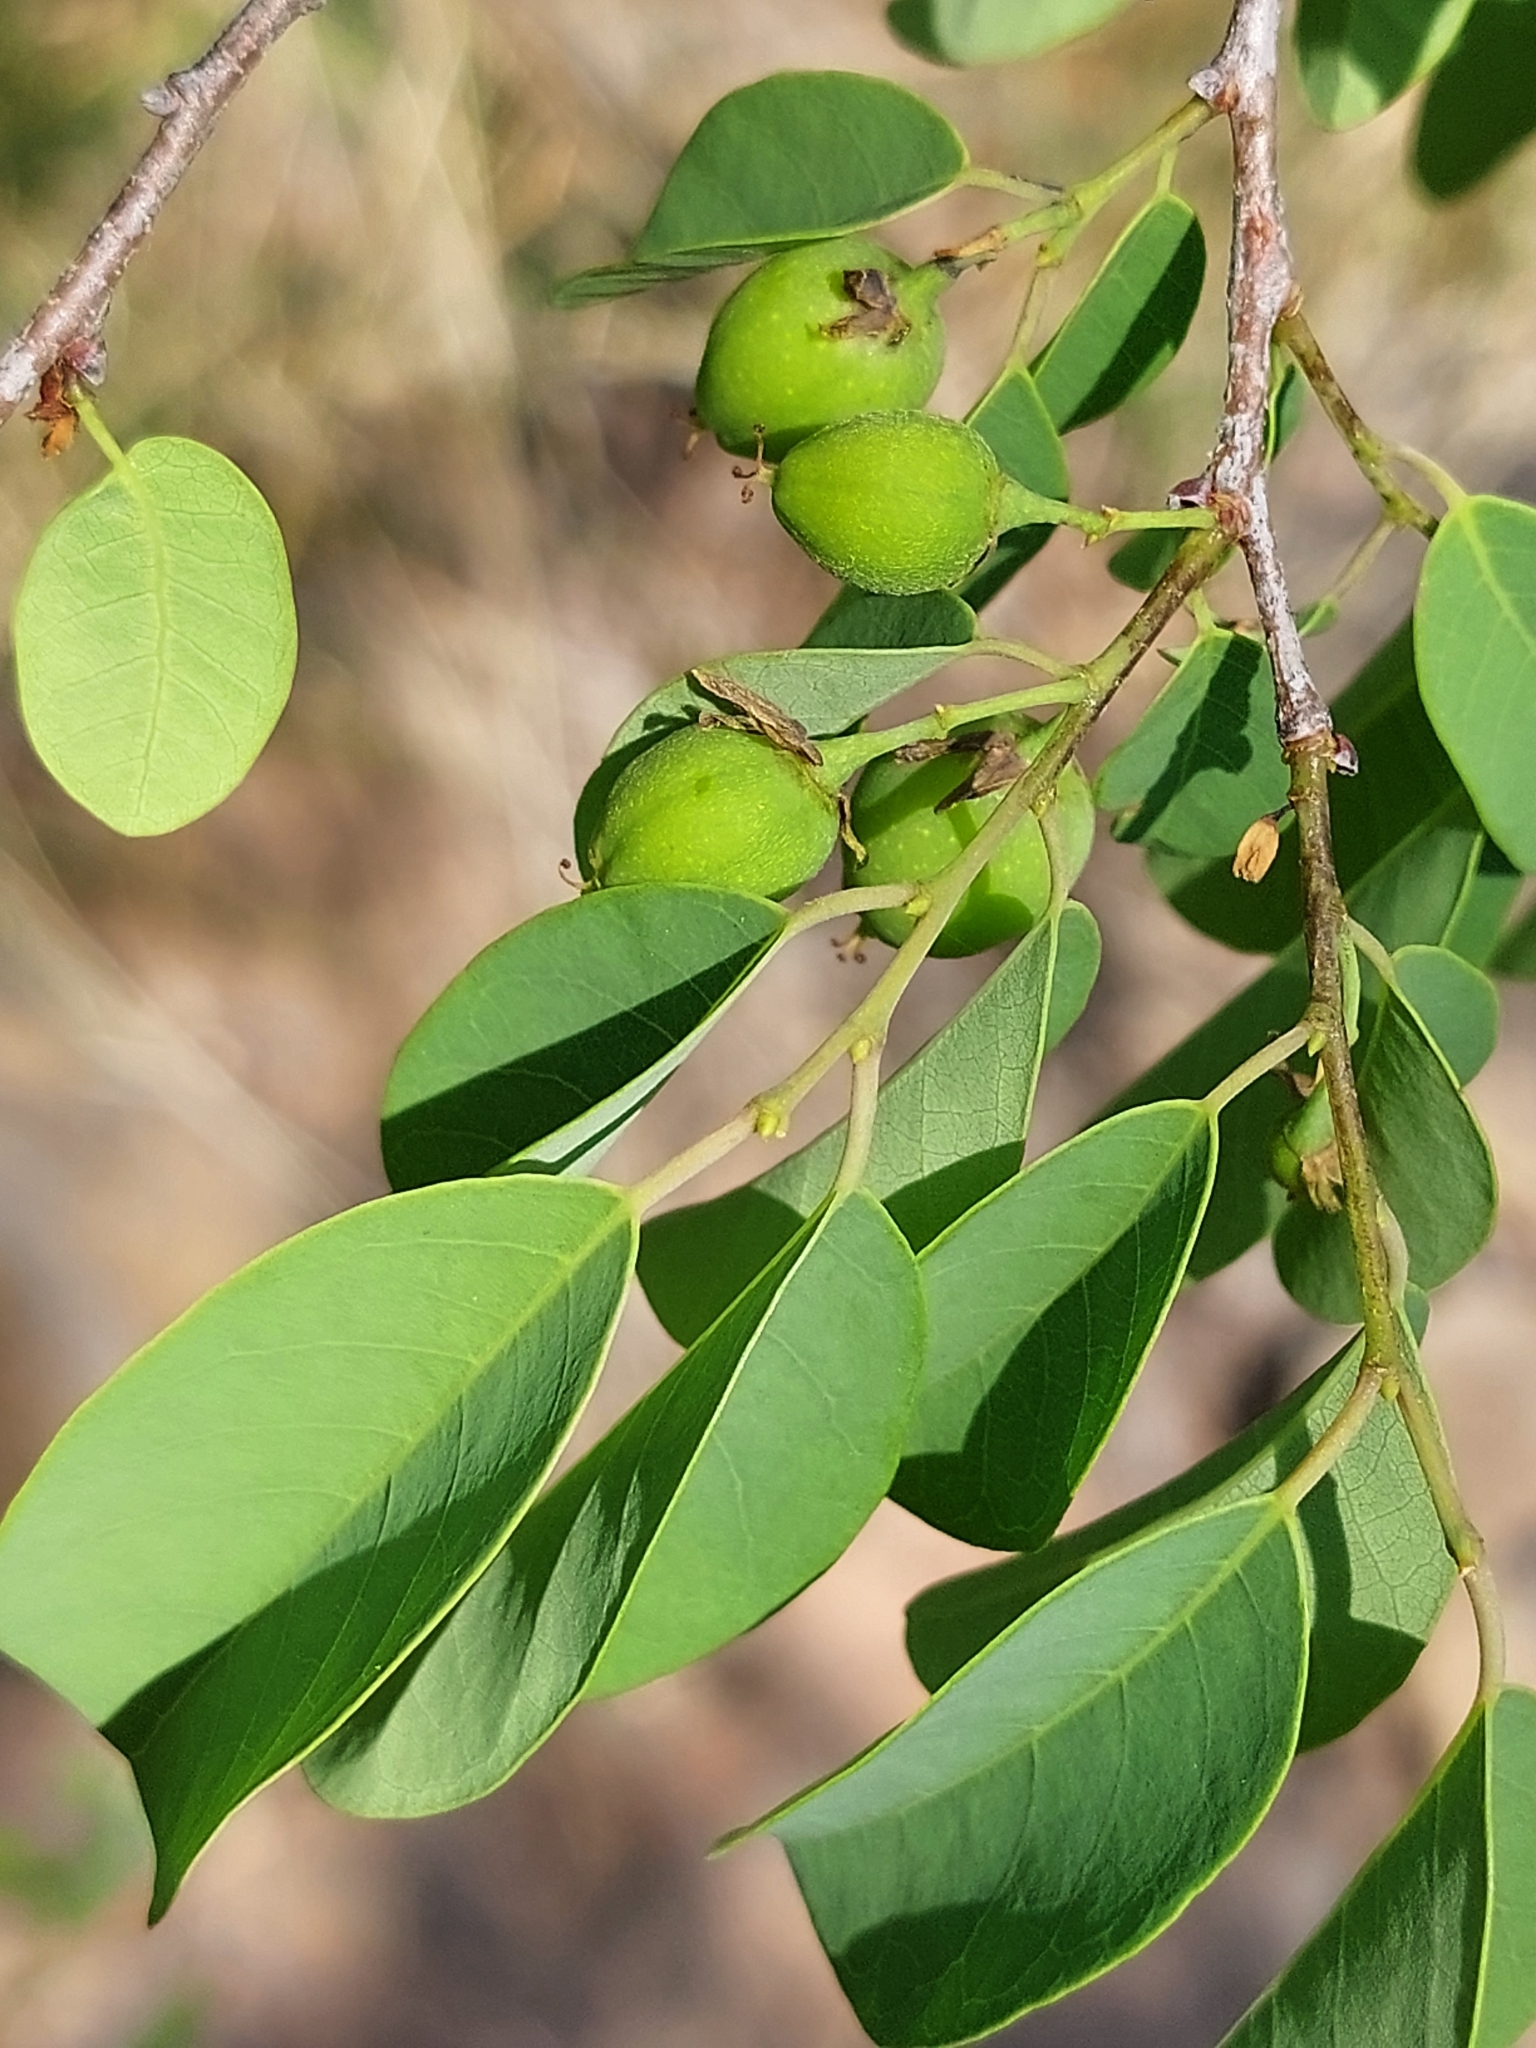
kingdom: Plantae
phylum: Tracheophyta
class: Magnoliopsida
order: Malpighiales
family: Phyllanthaceae
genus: Pseudolachnostylis
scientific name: Pseudolachnostylis maprouneifolia
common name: Kudu berry
